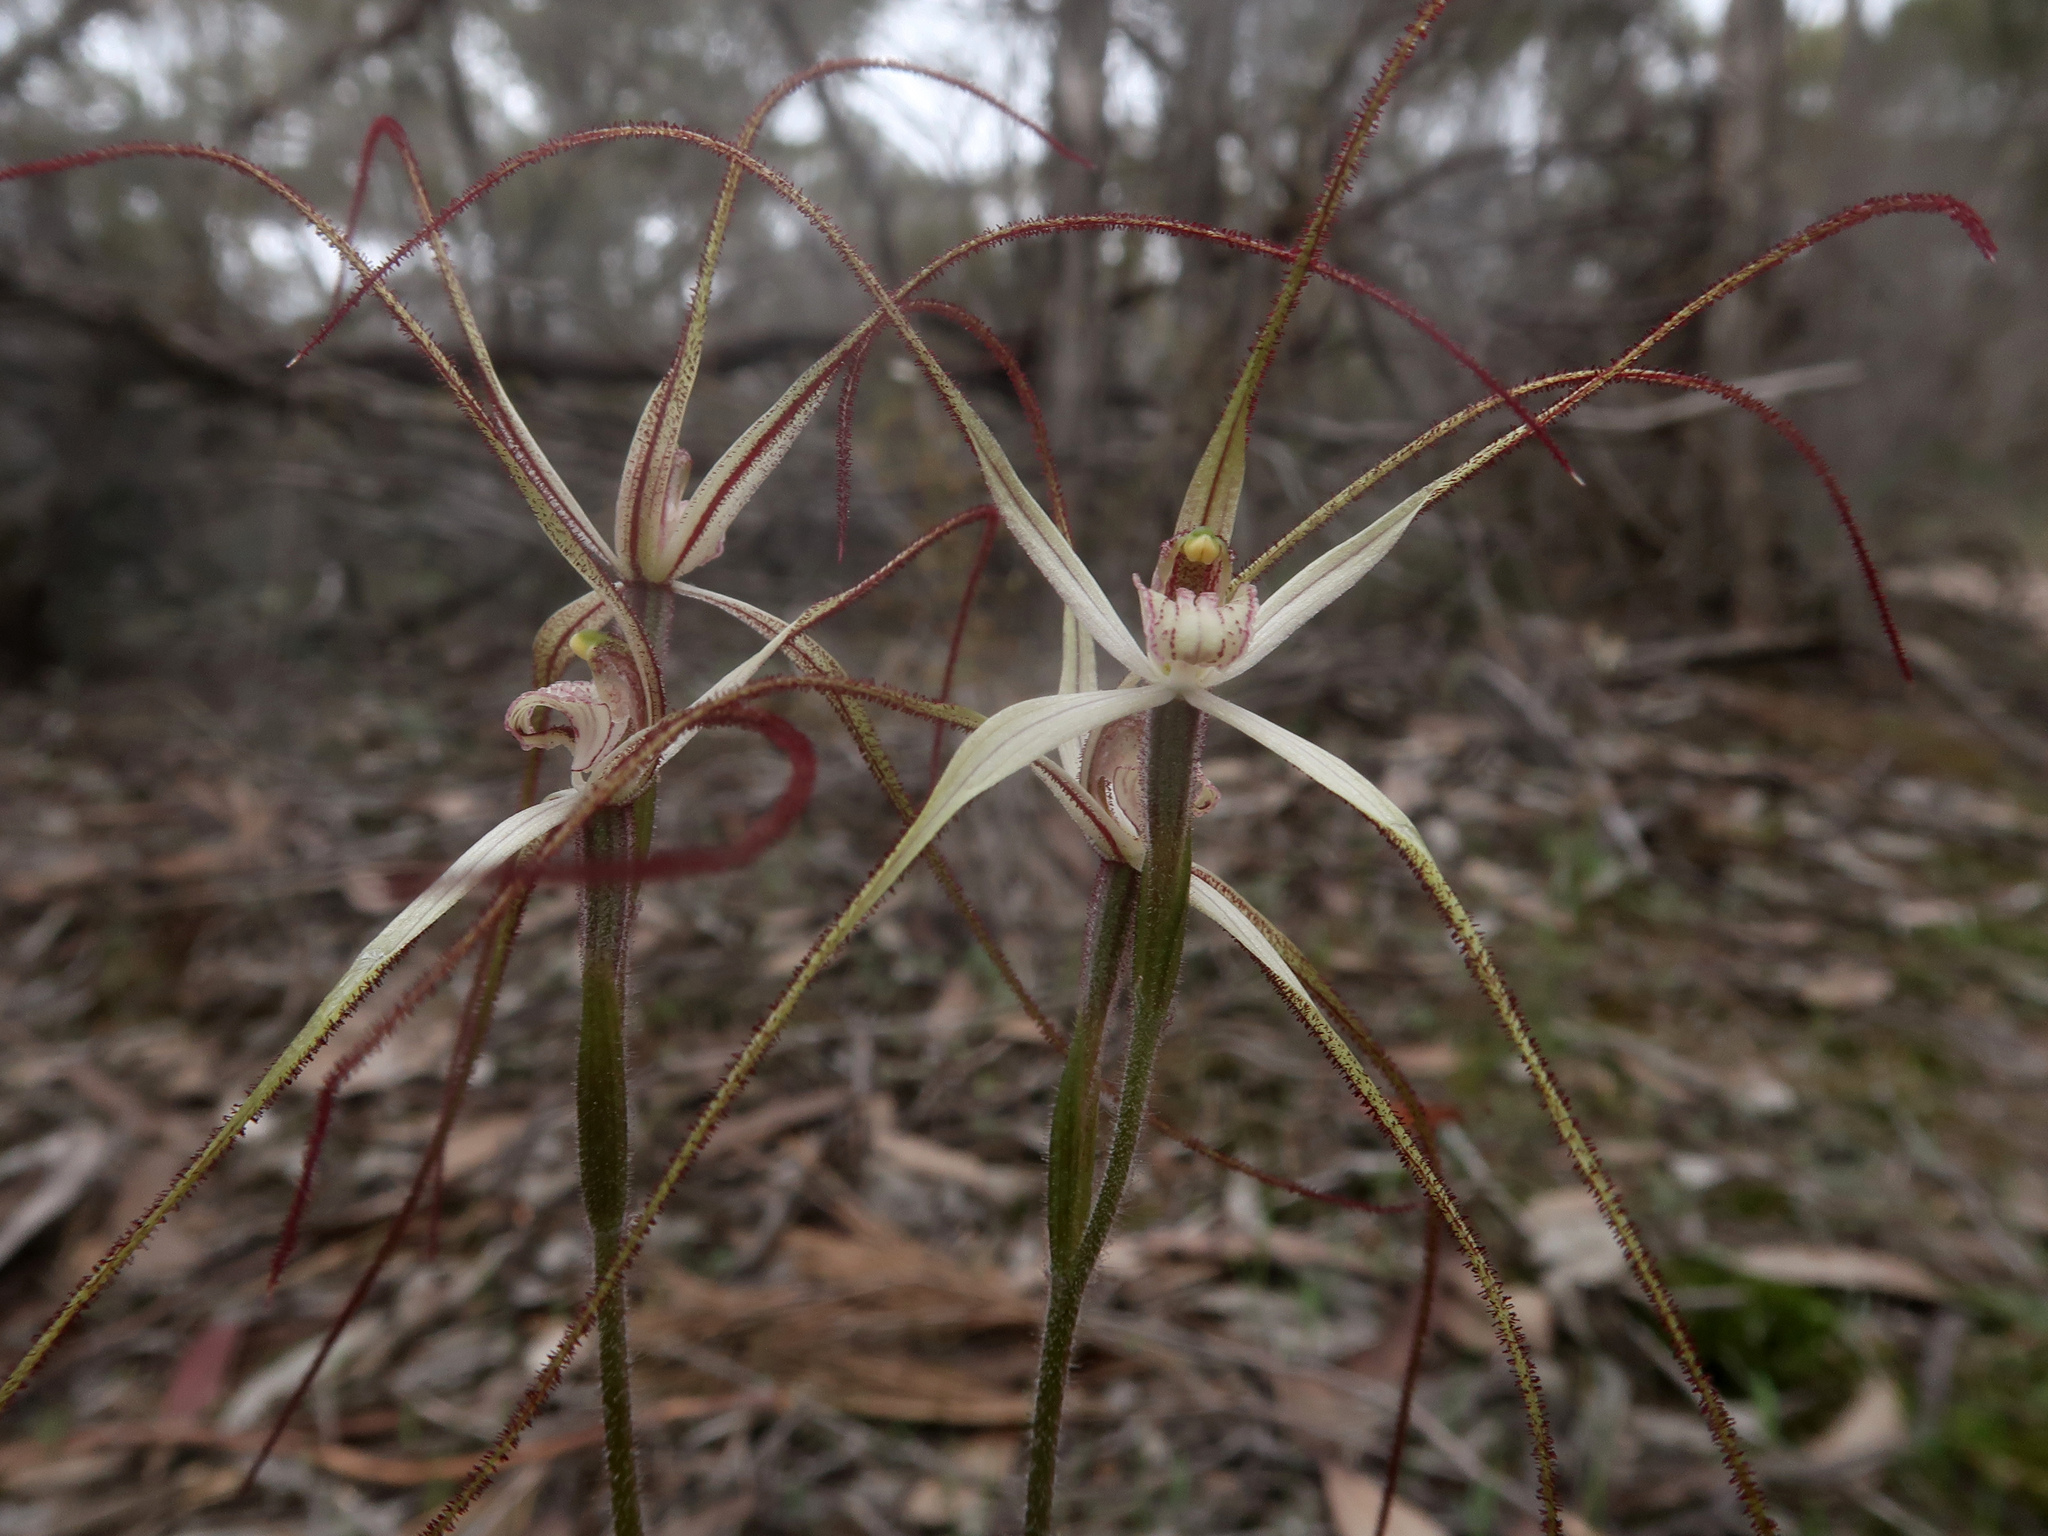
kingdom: Plantae
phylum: Tracheophyta
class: Liliopsida
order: Asparagales
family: Orchidaceae
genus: Caladenia
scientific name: Caladenia capillata
